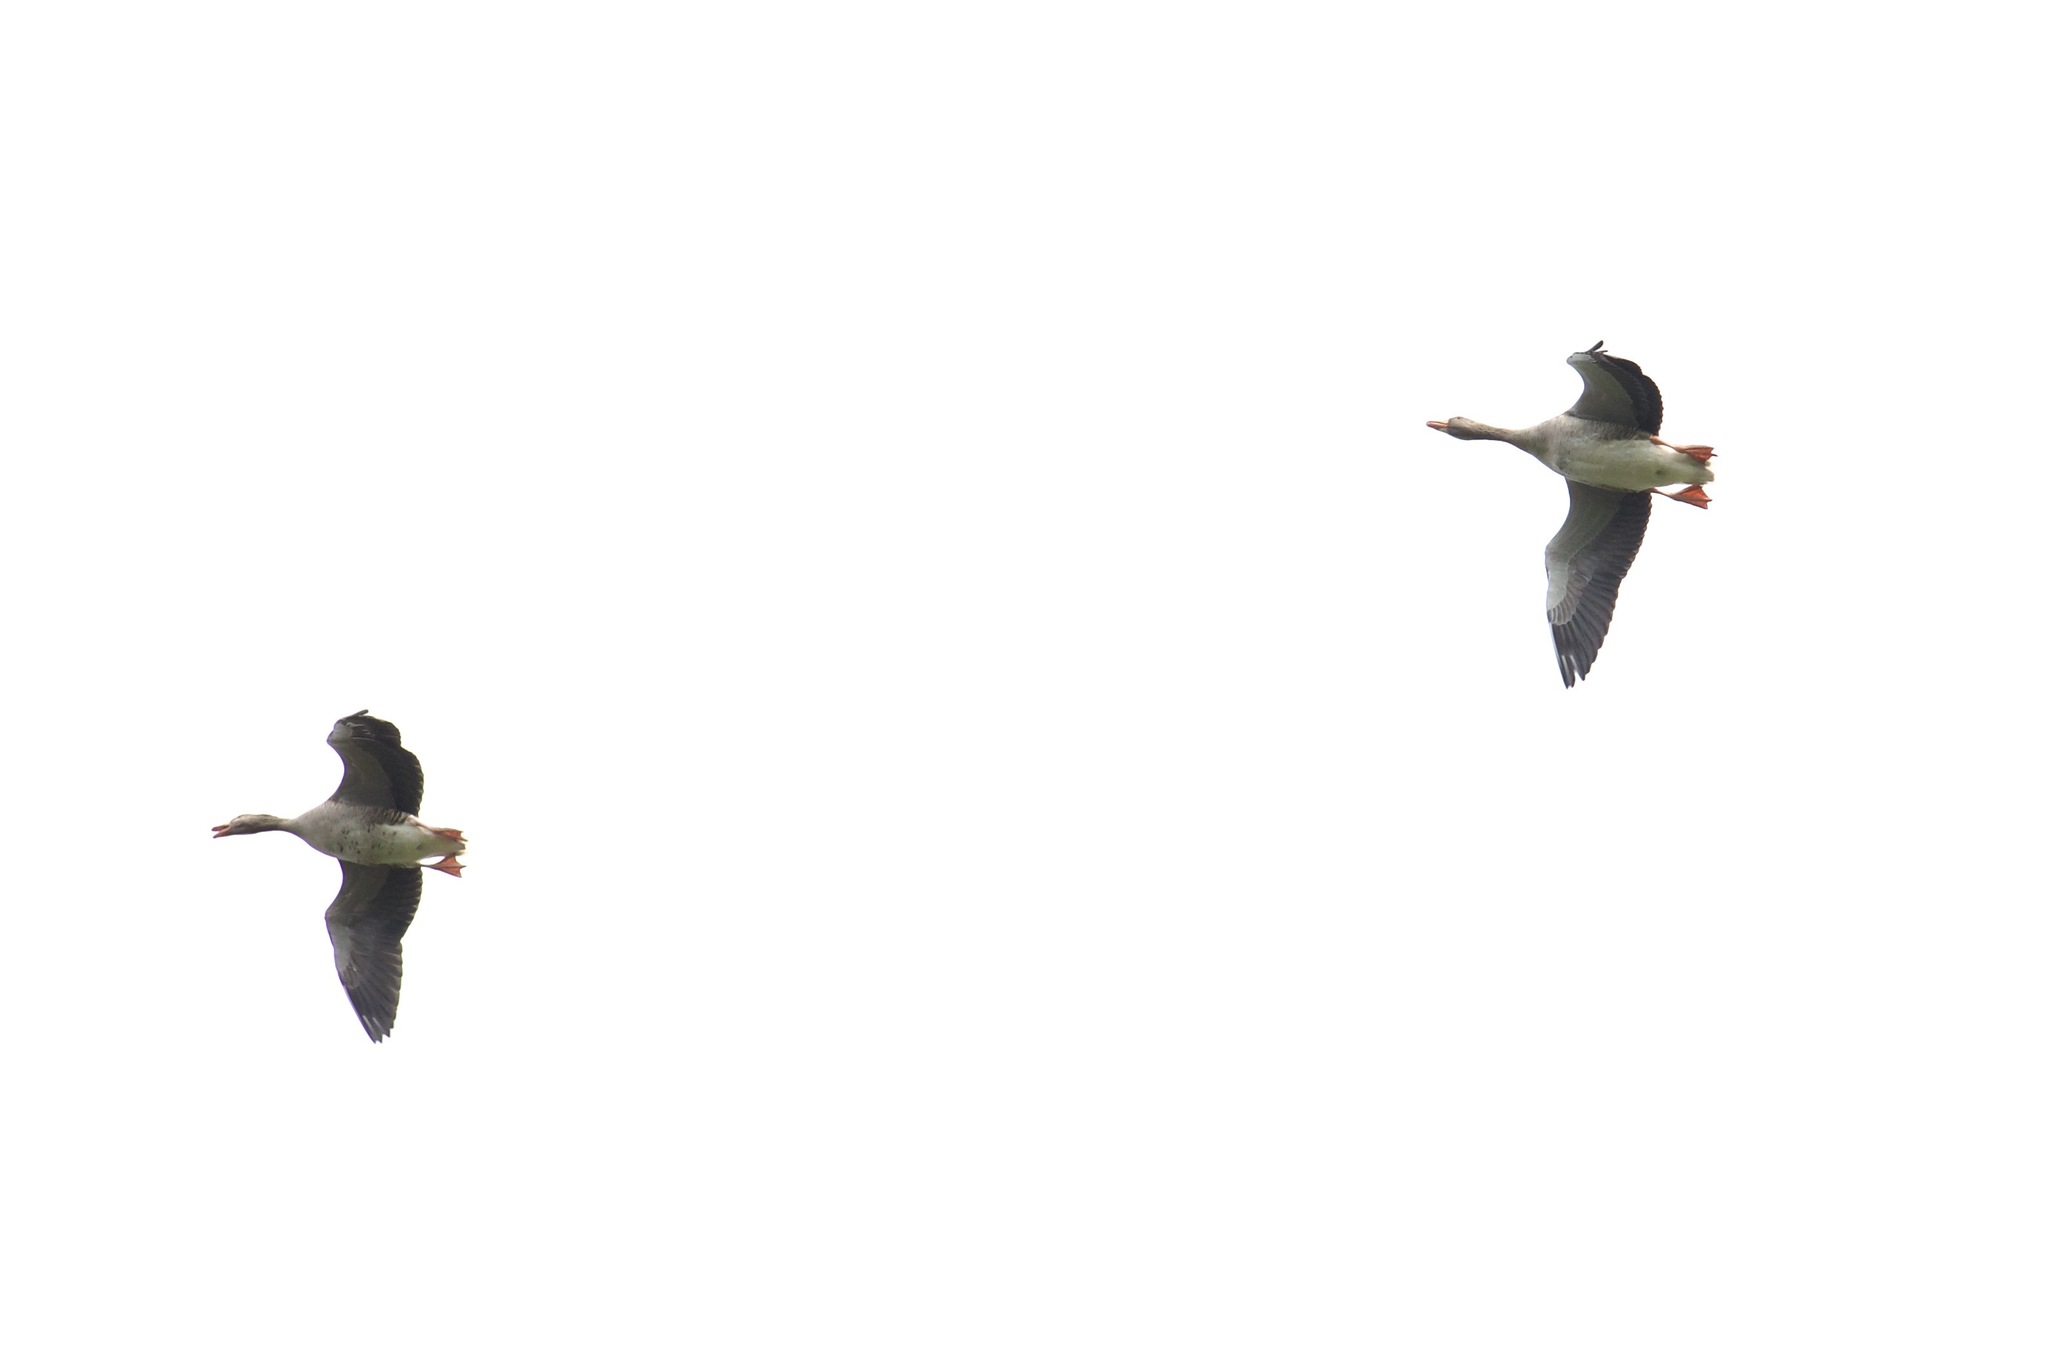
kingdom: Animalia
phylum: Chordata
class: Aves
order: Anseriformes
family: Anatidae
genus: Anser
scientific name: Anser anser
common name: Greylag goose
